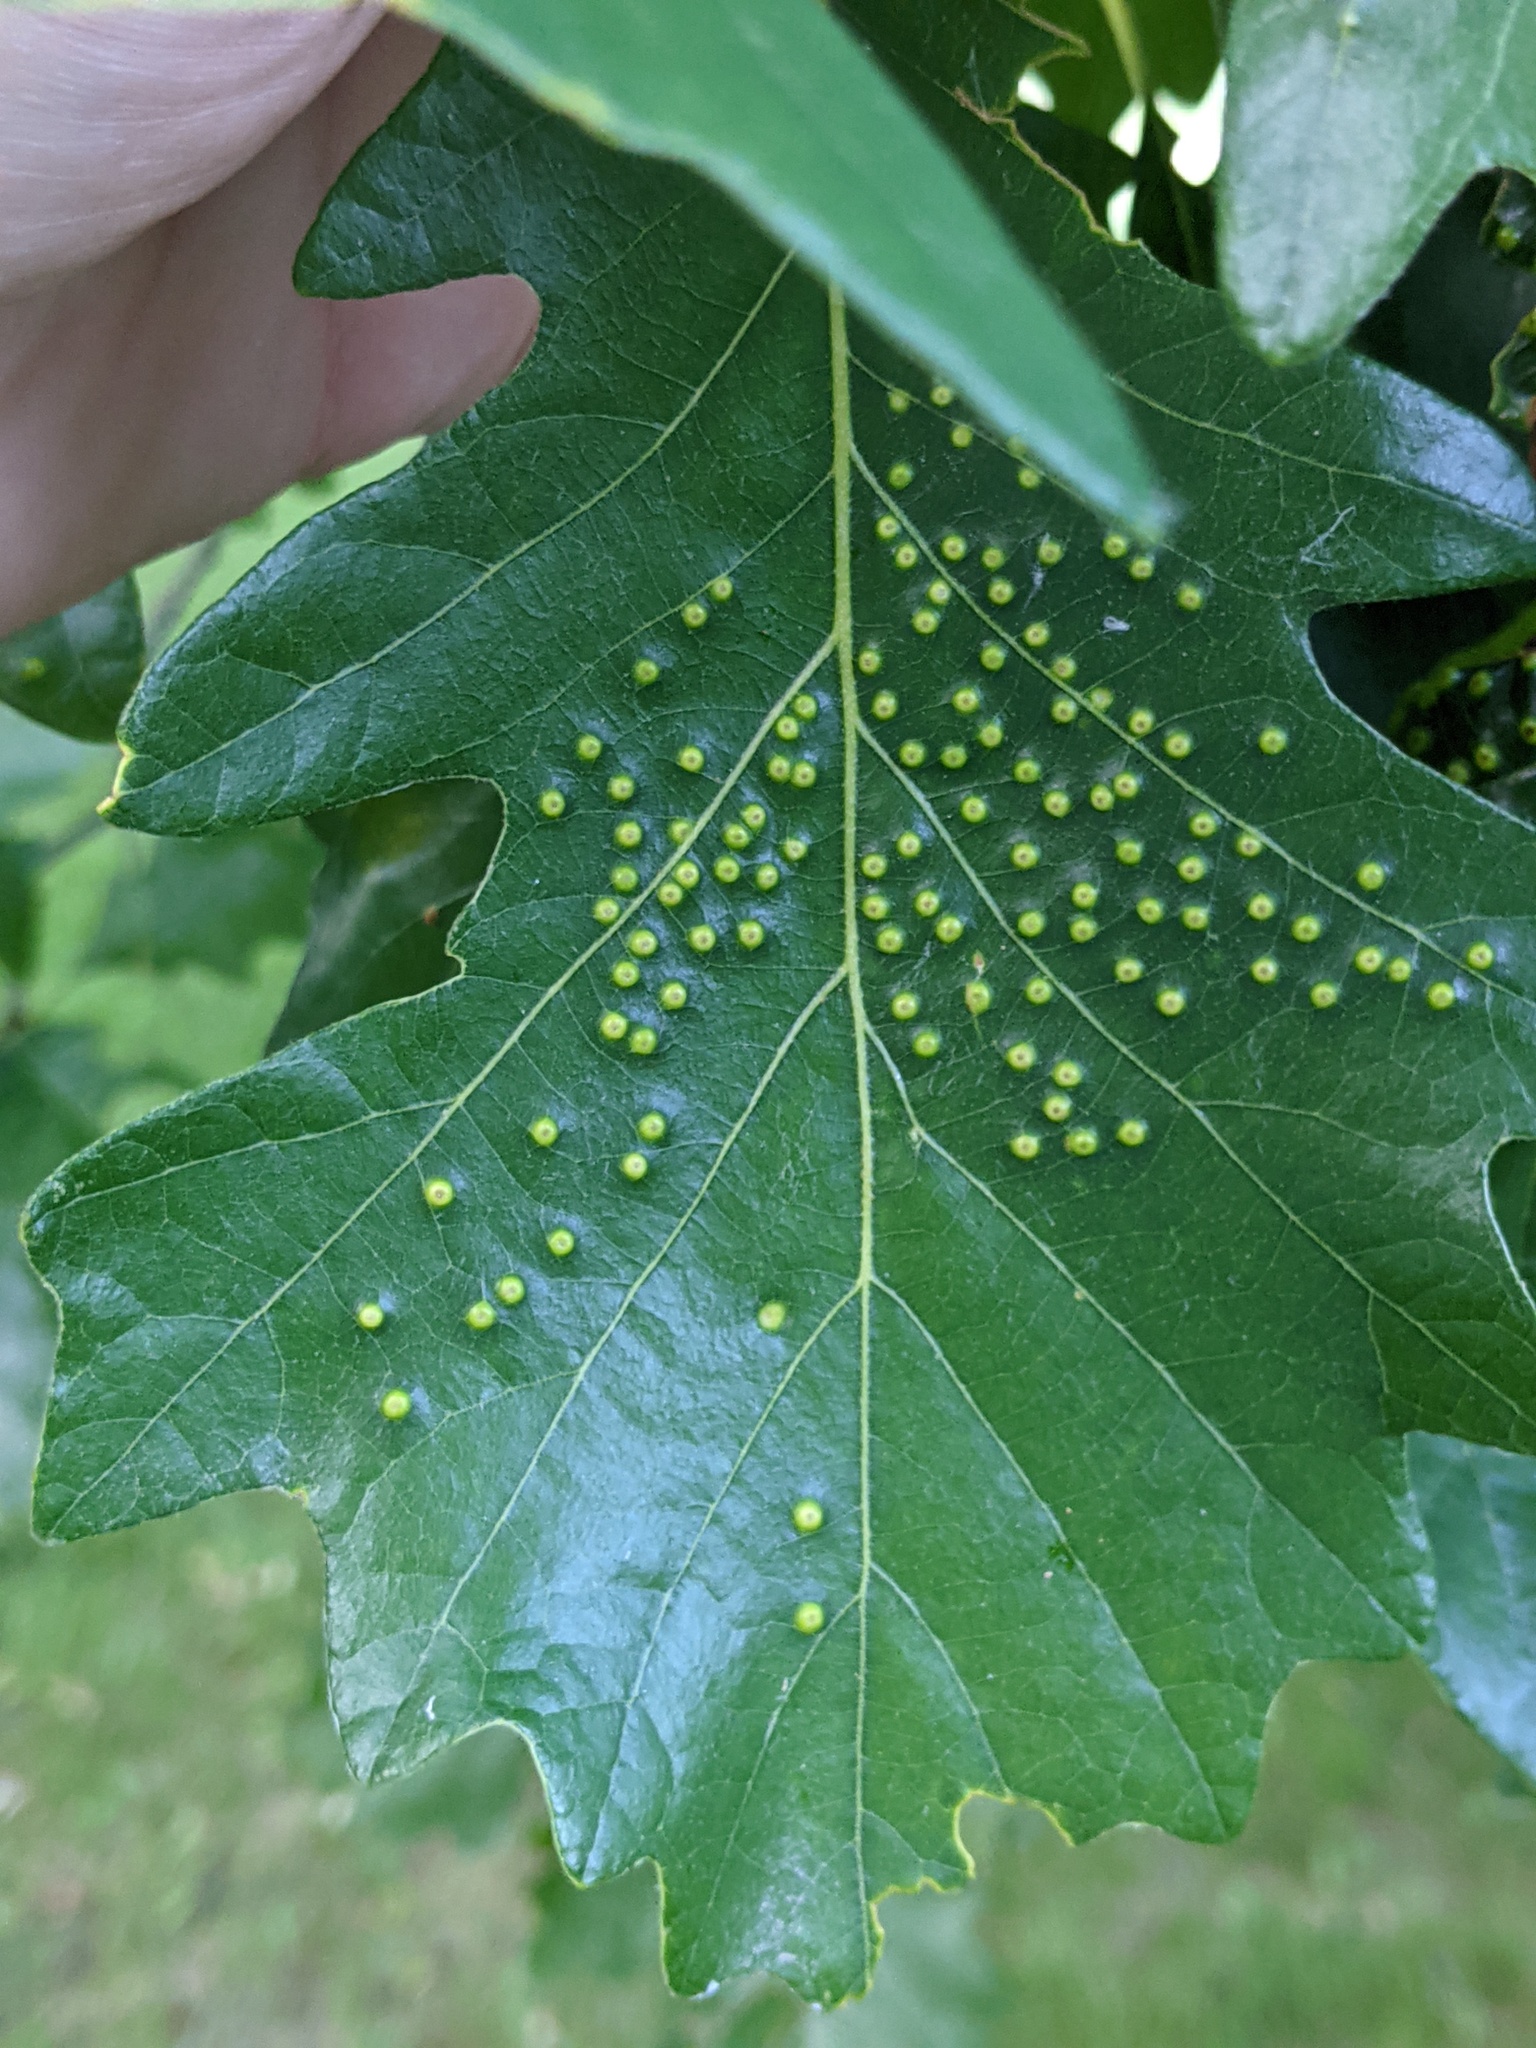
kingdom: Animalia
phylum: Arthropoda
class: Insecta
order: Hymenoptera
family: Cynipidae
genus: Neuroterus
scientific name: Neuroterus saltarius
